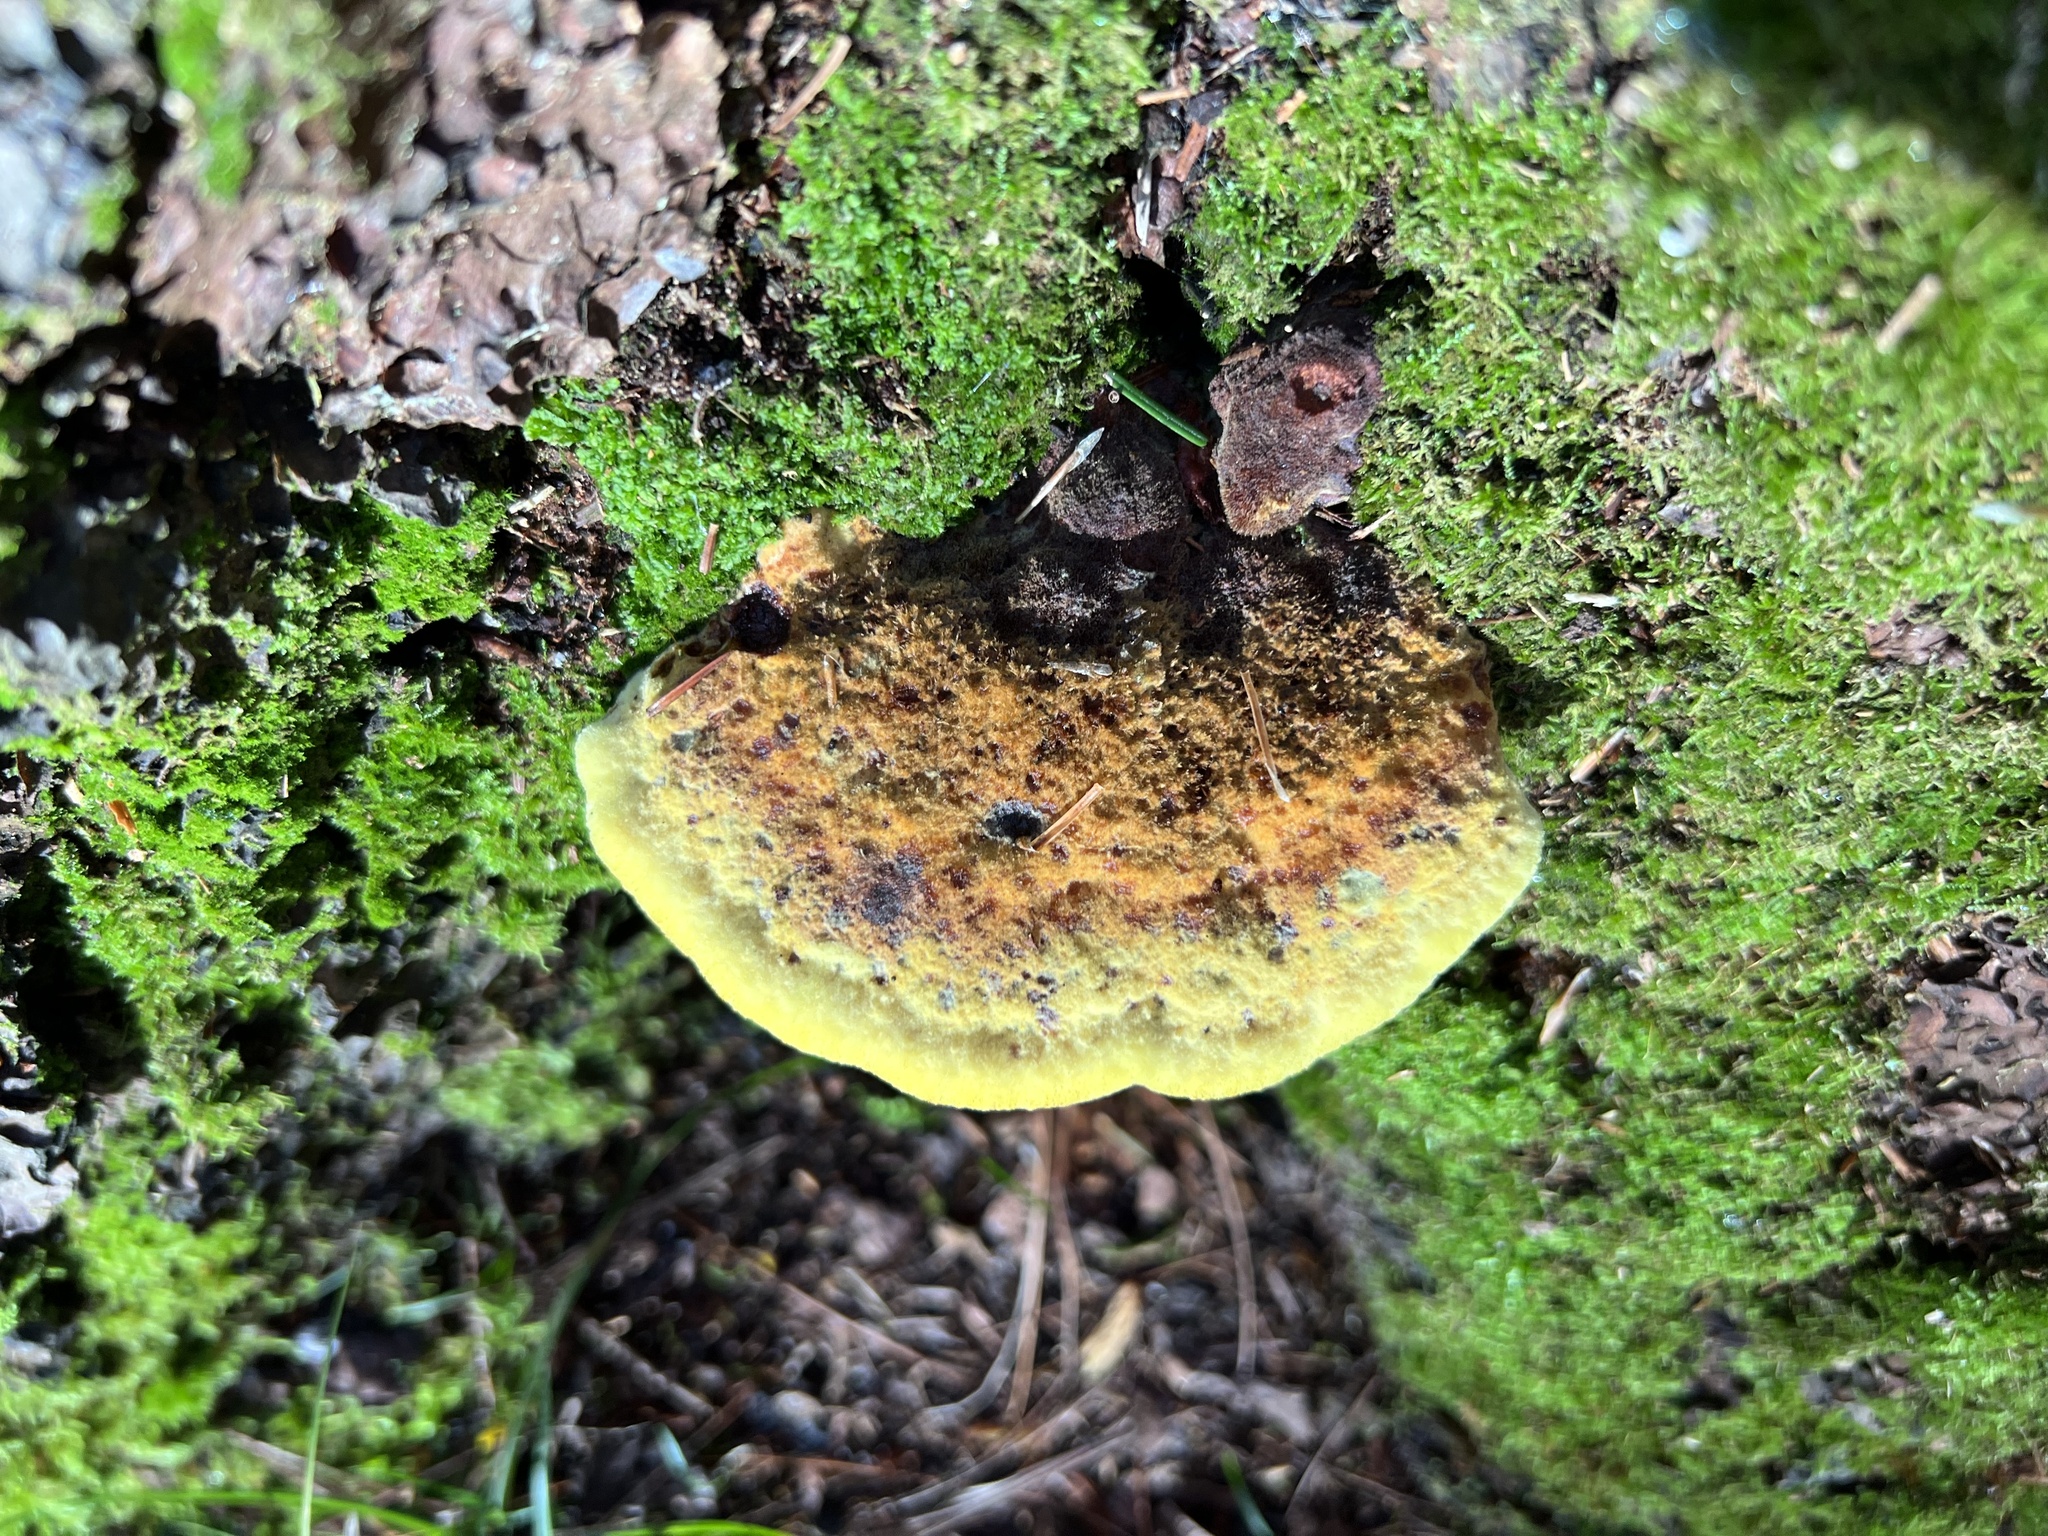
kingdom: Fungi
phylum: Basidiomycota
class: Agaricomycetes
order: Polyporales
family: Laetiporaceae
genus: Phaeolus
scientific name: Phaeolus schweinitzii
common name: Dyer's mazegill
